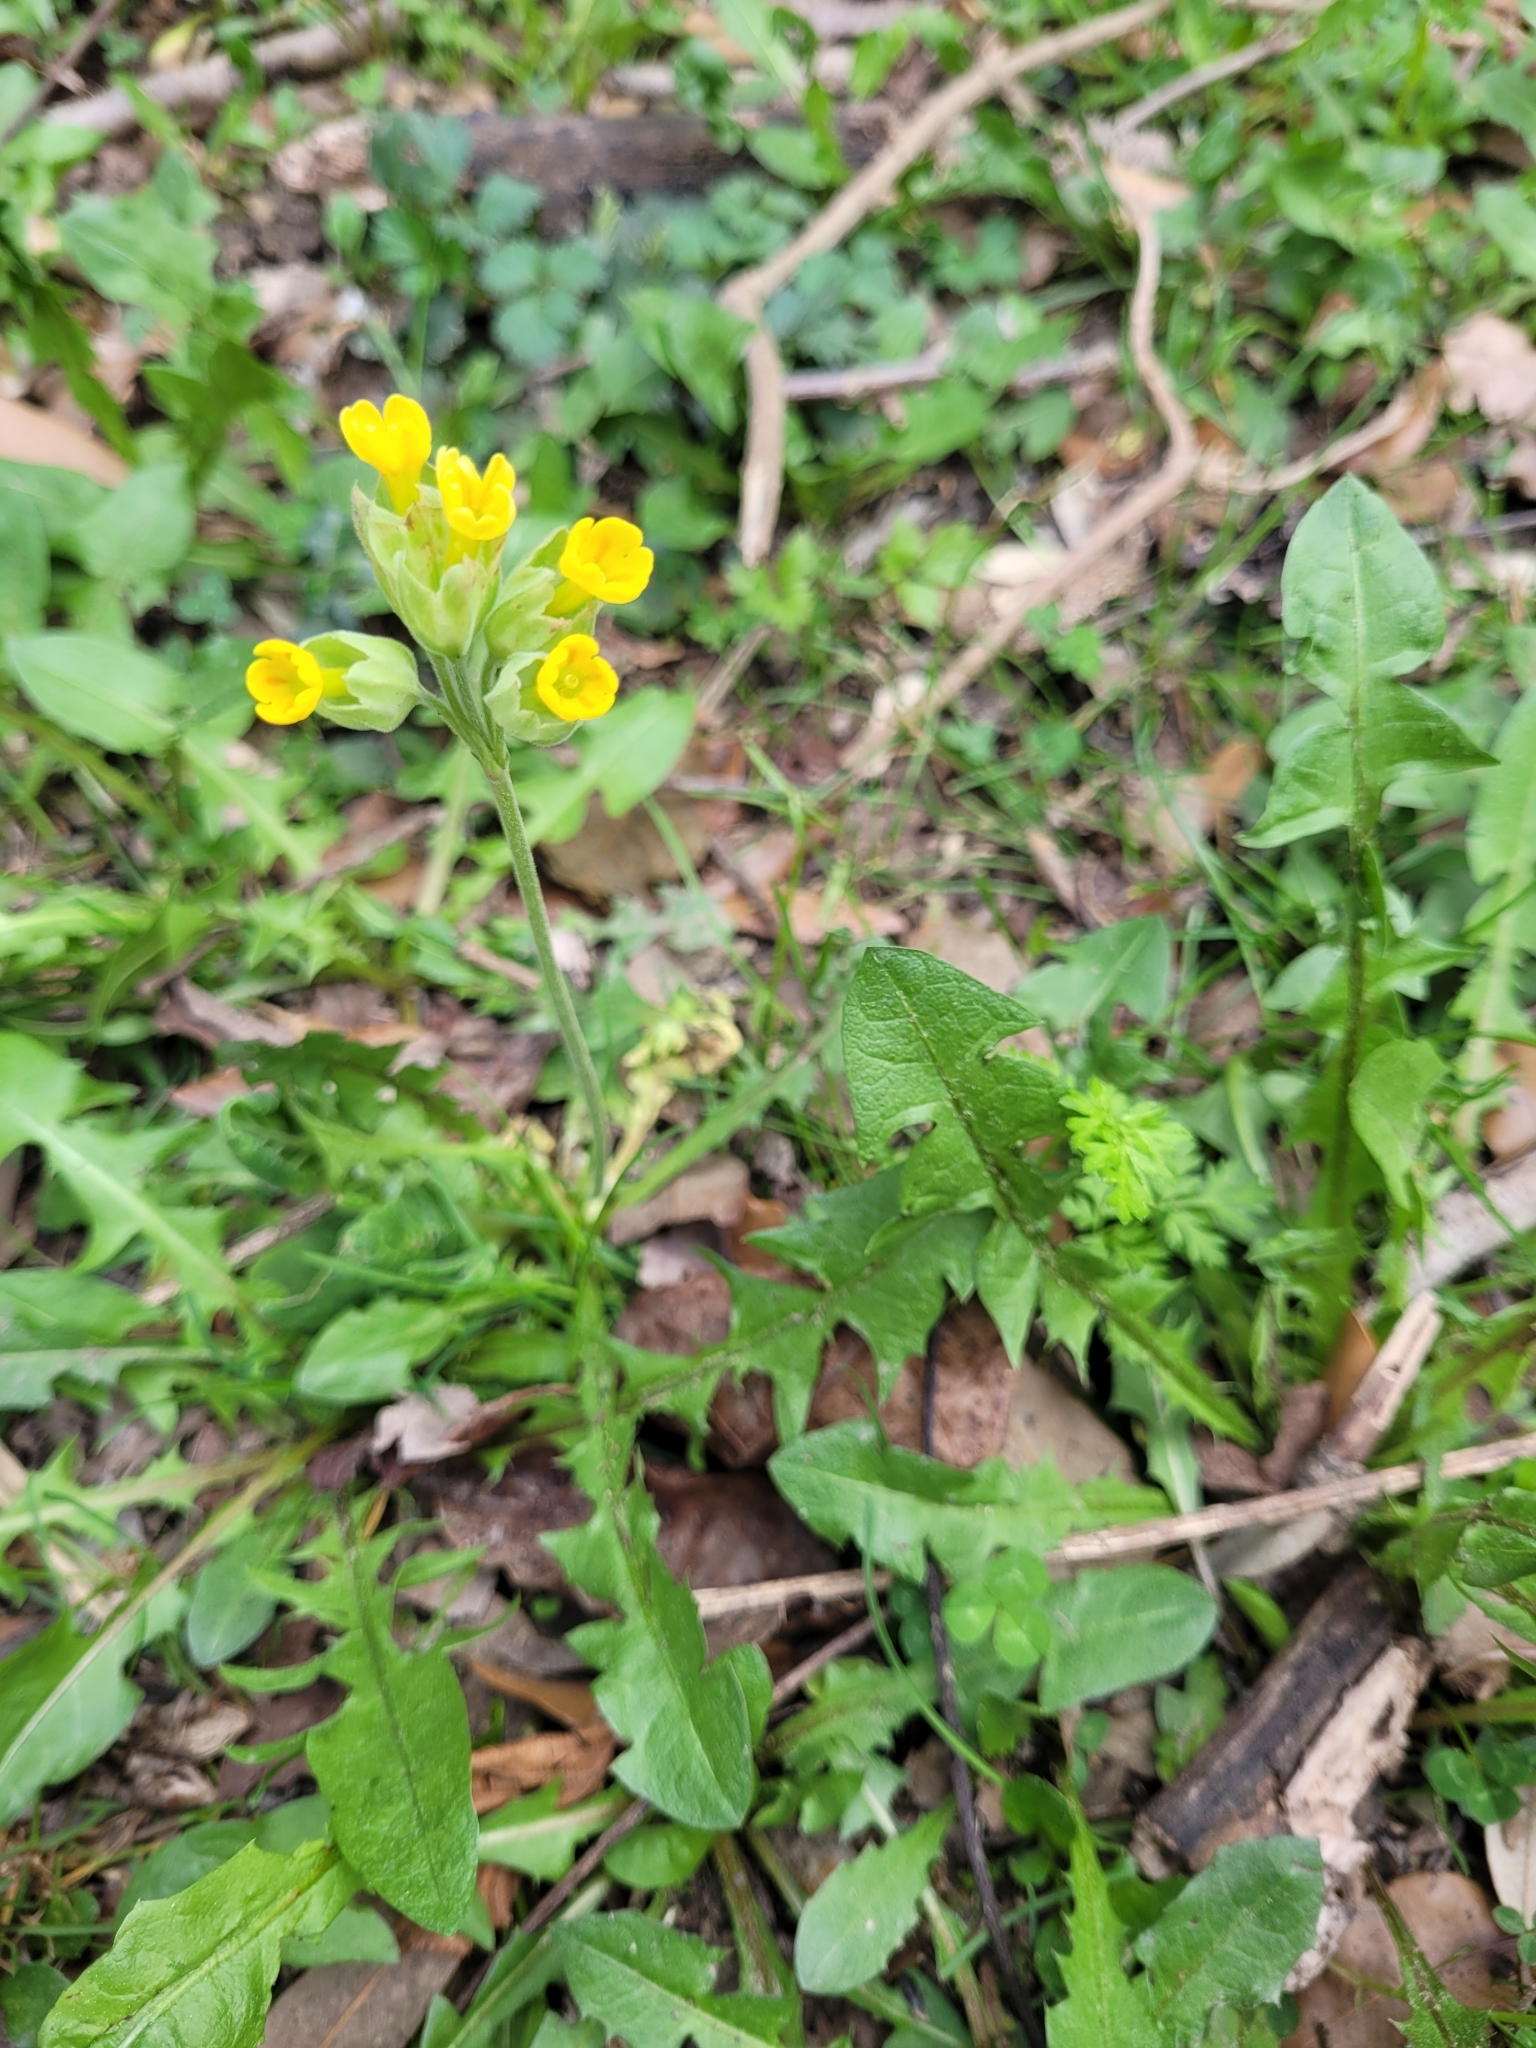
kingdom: Plantae
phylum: Tracheophyta
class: Magnoliopsida
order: Ericales
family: Primulaceae
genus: Primula
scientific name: Primula veris
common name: Cowslip
